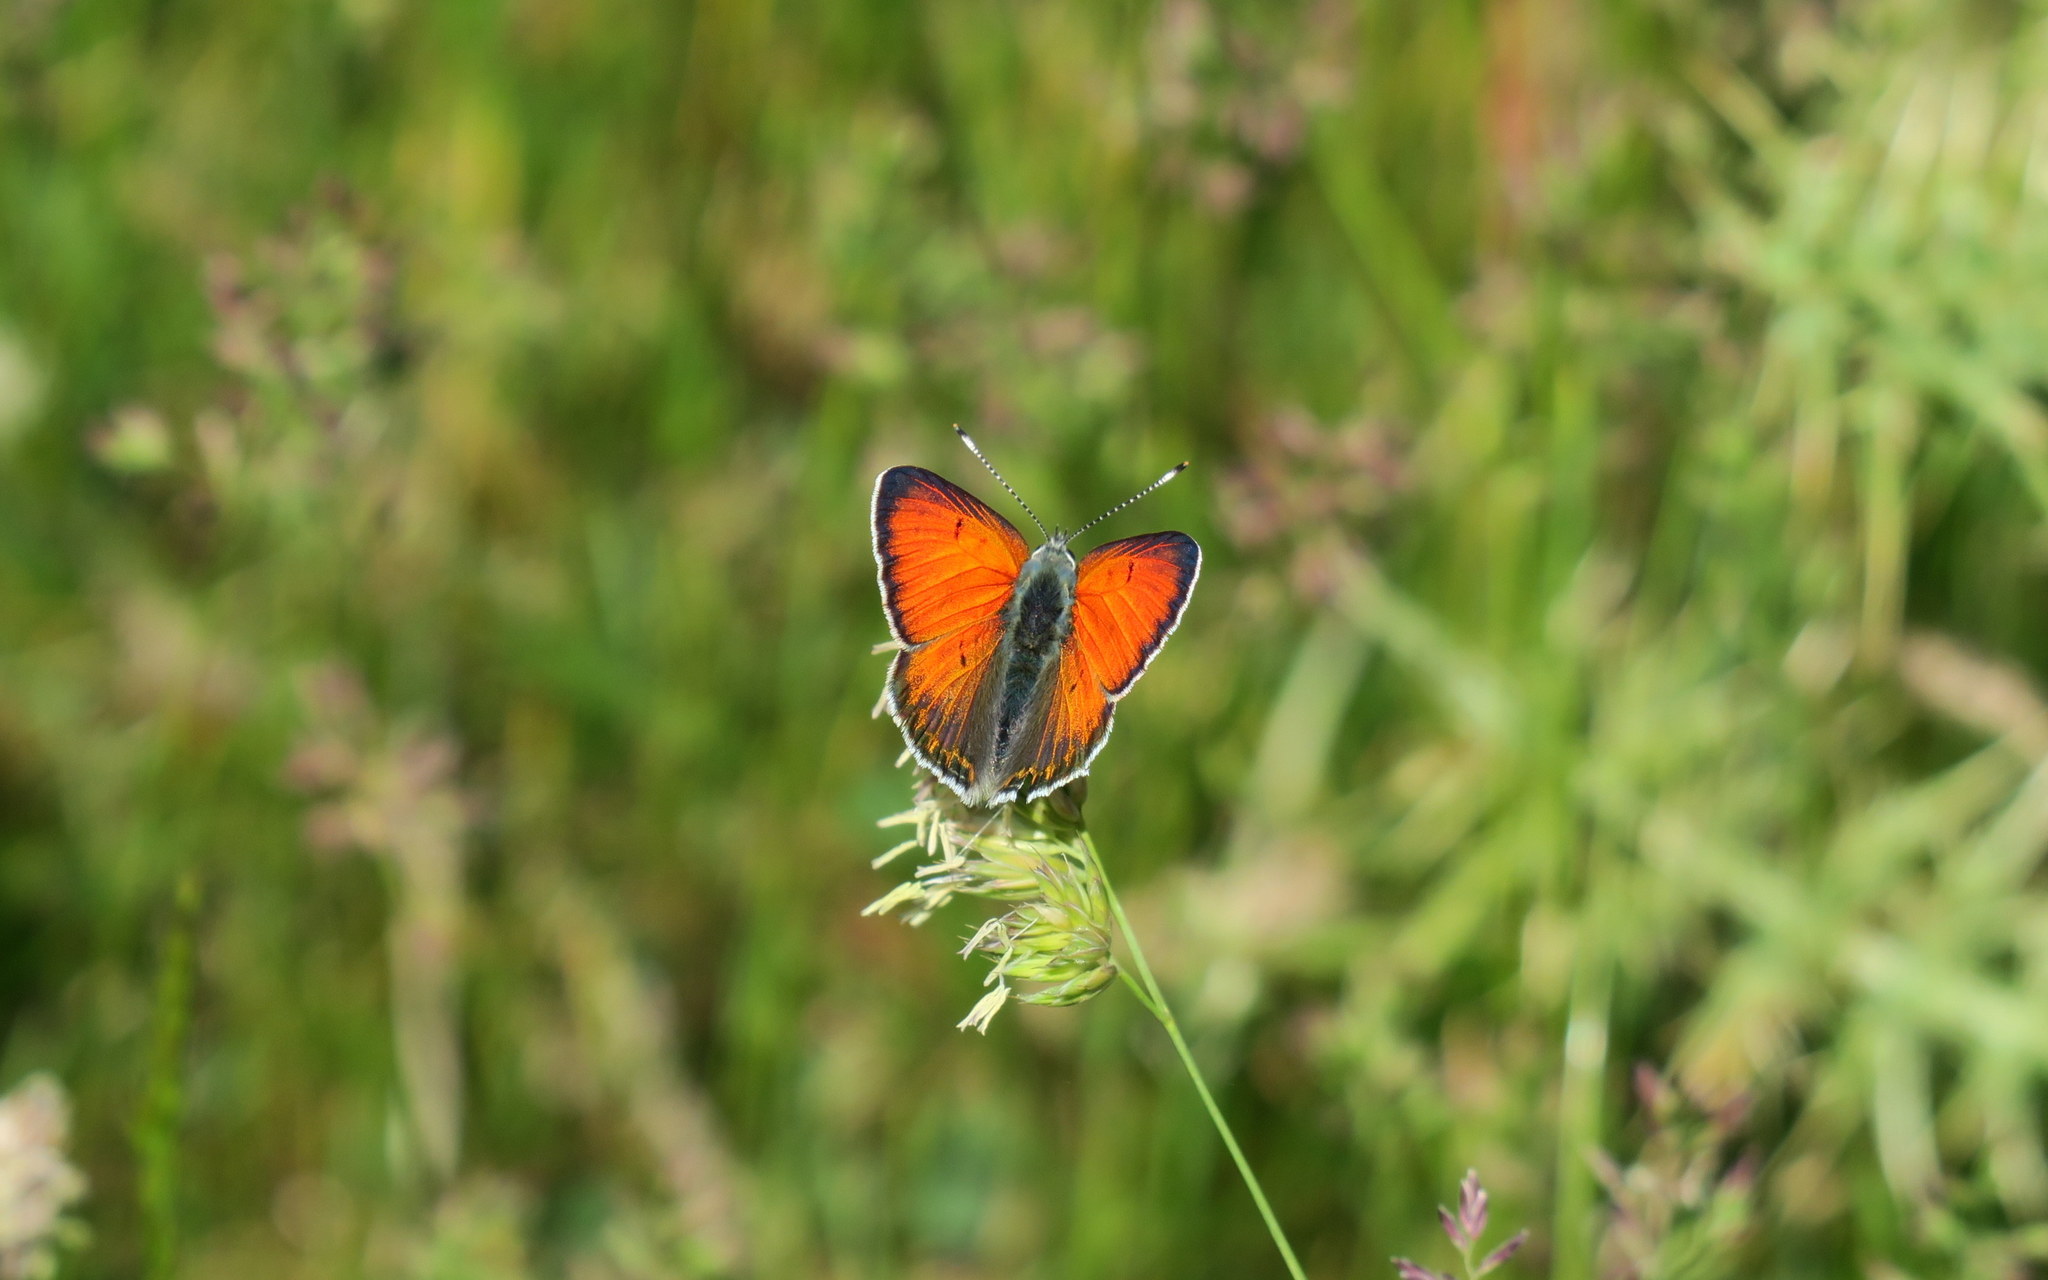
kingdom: Animalia
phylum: Arthropoda
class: Insecta
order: Lepidoptera
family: Lycaenidae
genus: Palaeochrysophanus
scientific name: Palaeochrysophanus candens
